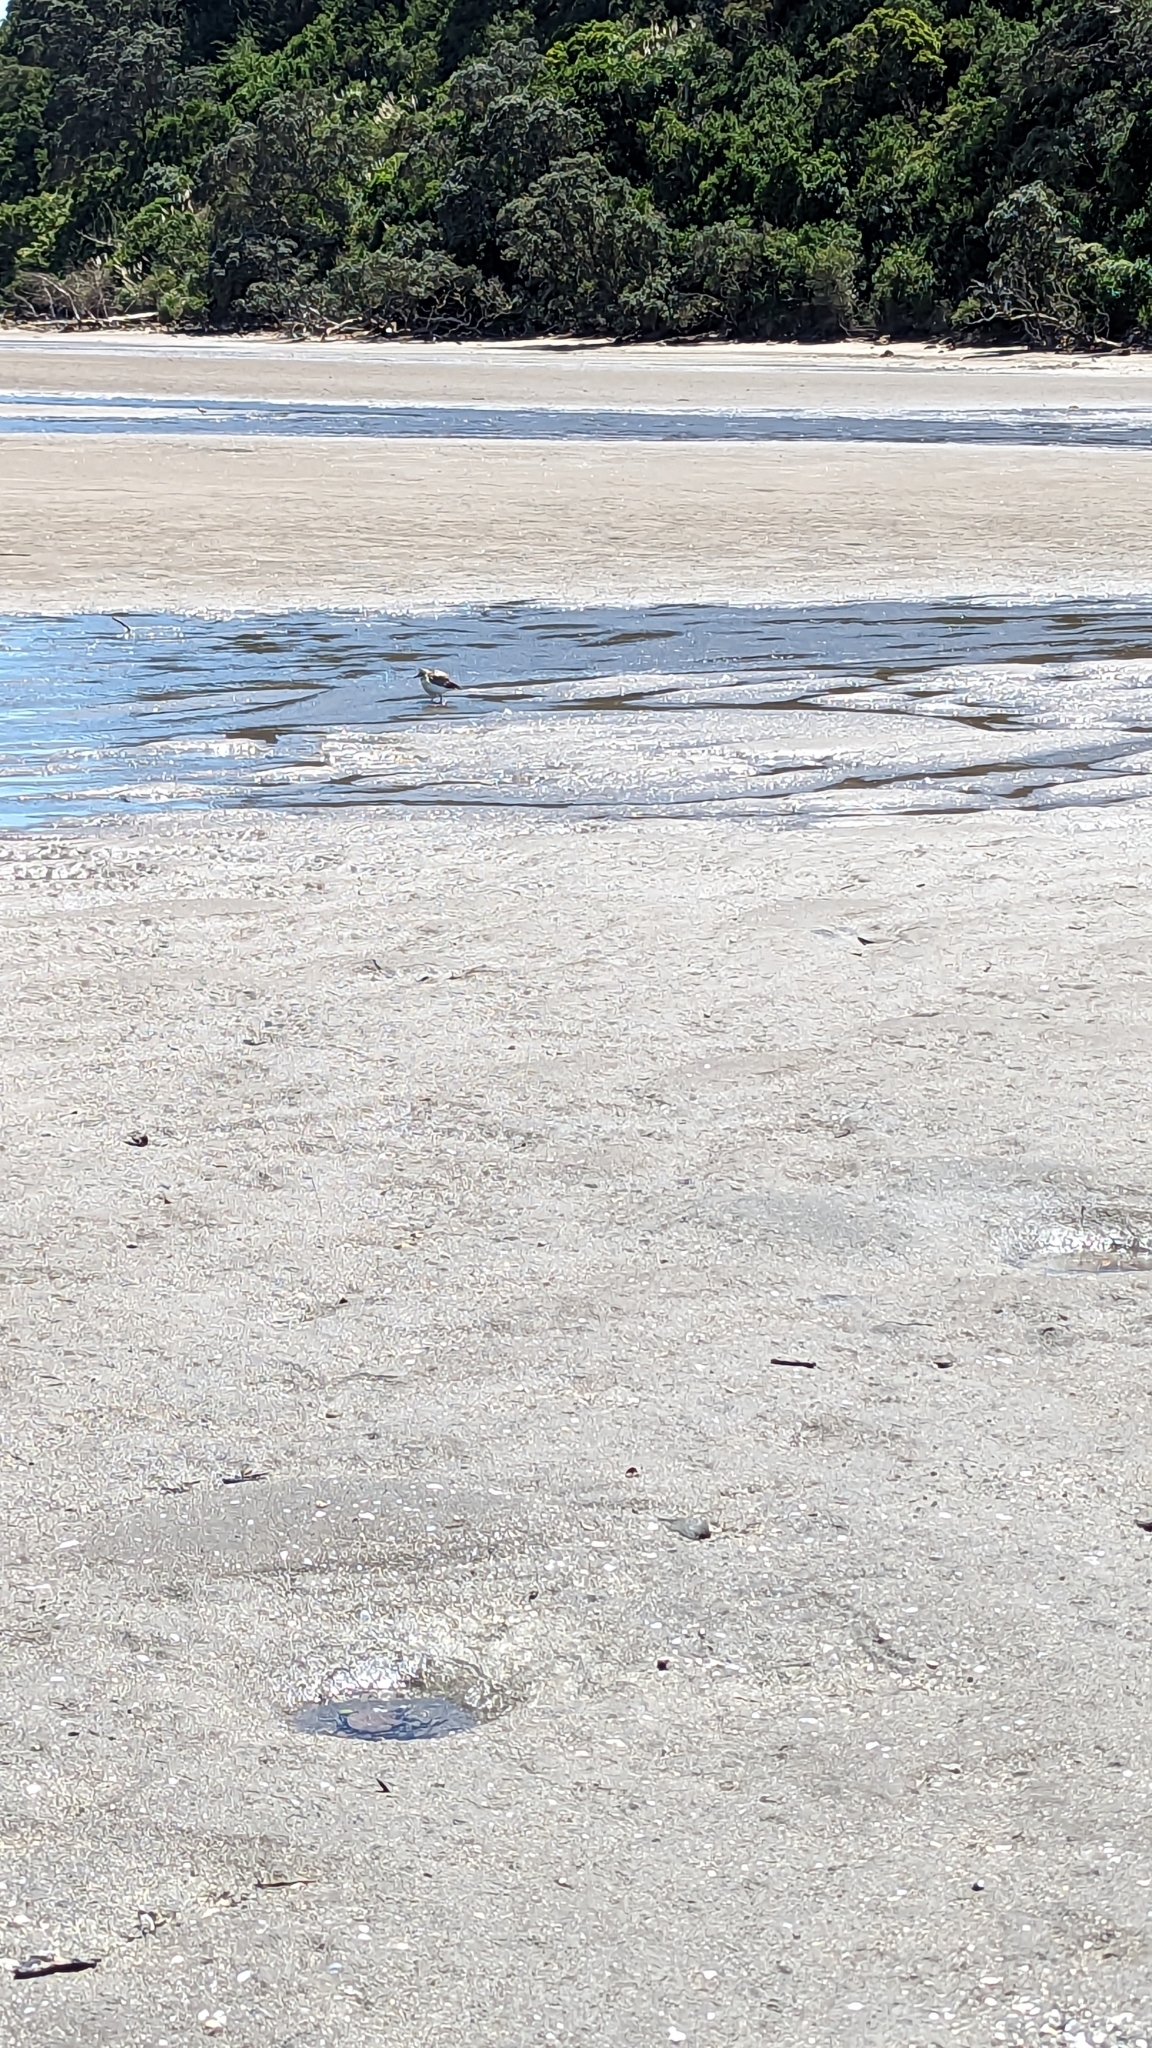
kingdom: Animalia
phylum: Chordata
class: Aves
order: Charadriiformes
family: Charadriidae
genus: Anarhynchus
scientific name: Anarhynchus
